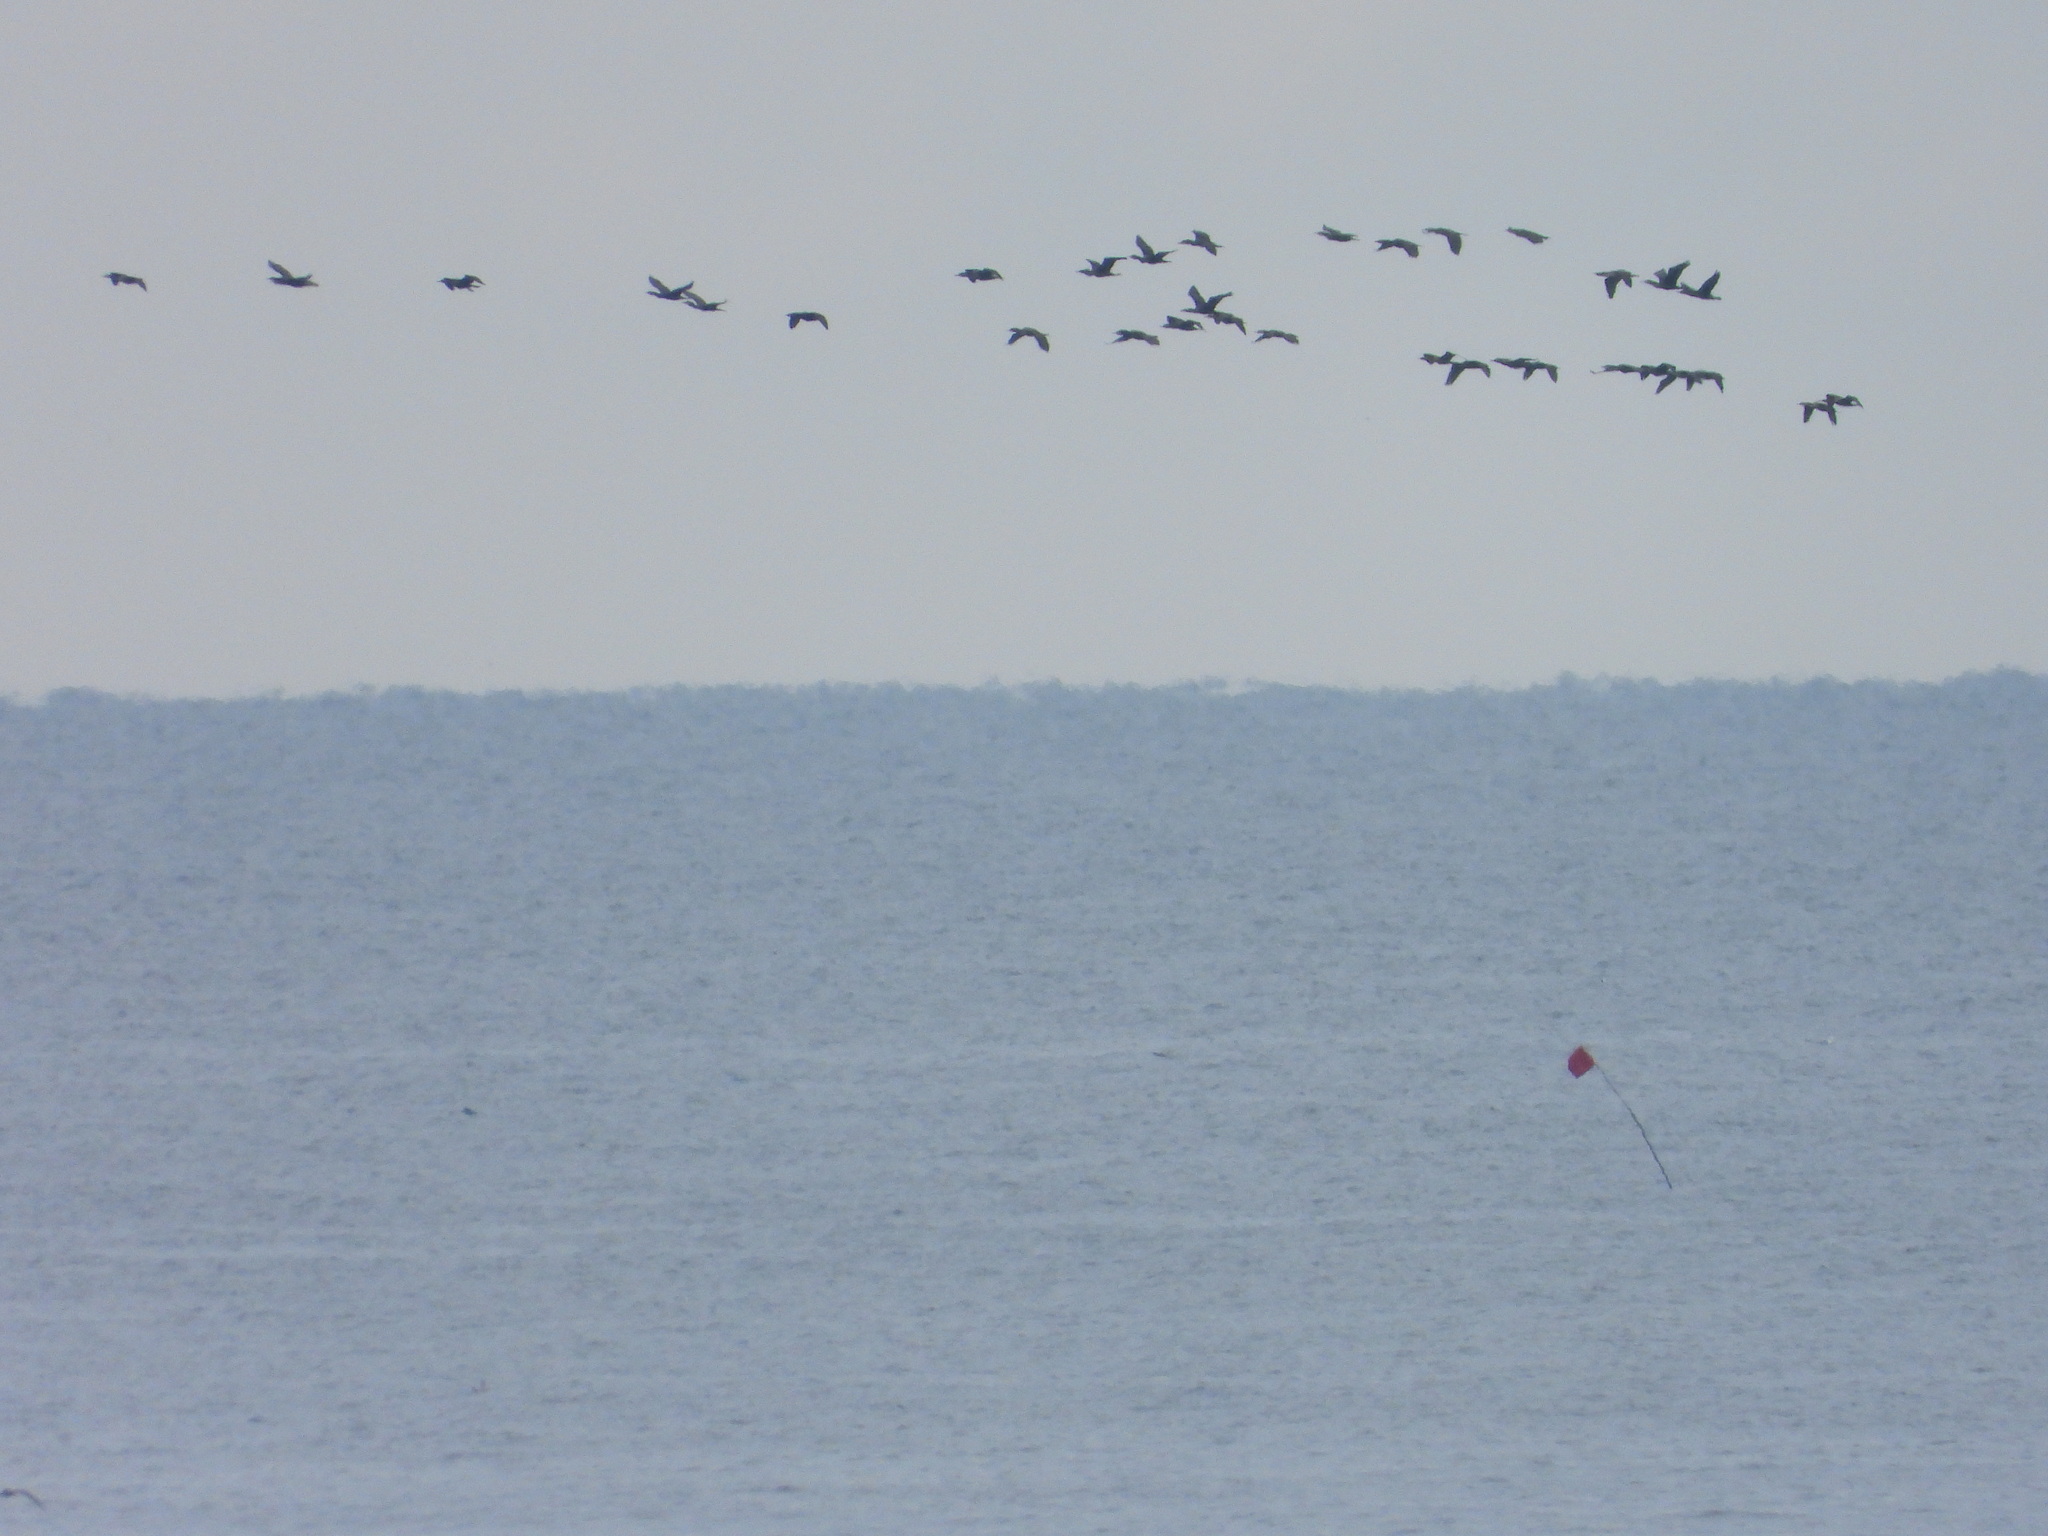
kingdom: Animalia
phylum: Chordata
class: Aves
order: Suliformes
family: Phalacrocoracidae
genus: Phalacrocorax
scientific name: Phalacrocorax auritus
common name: Double-crested cormorant
